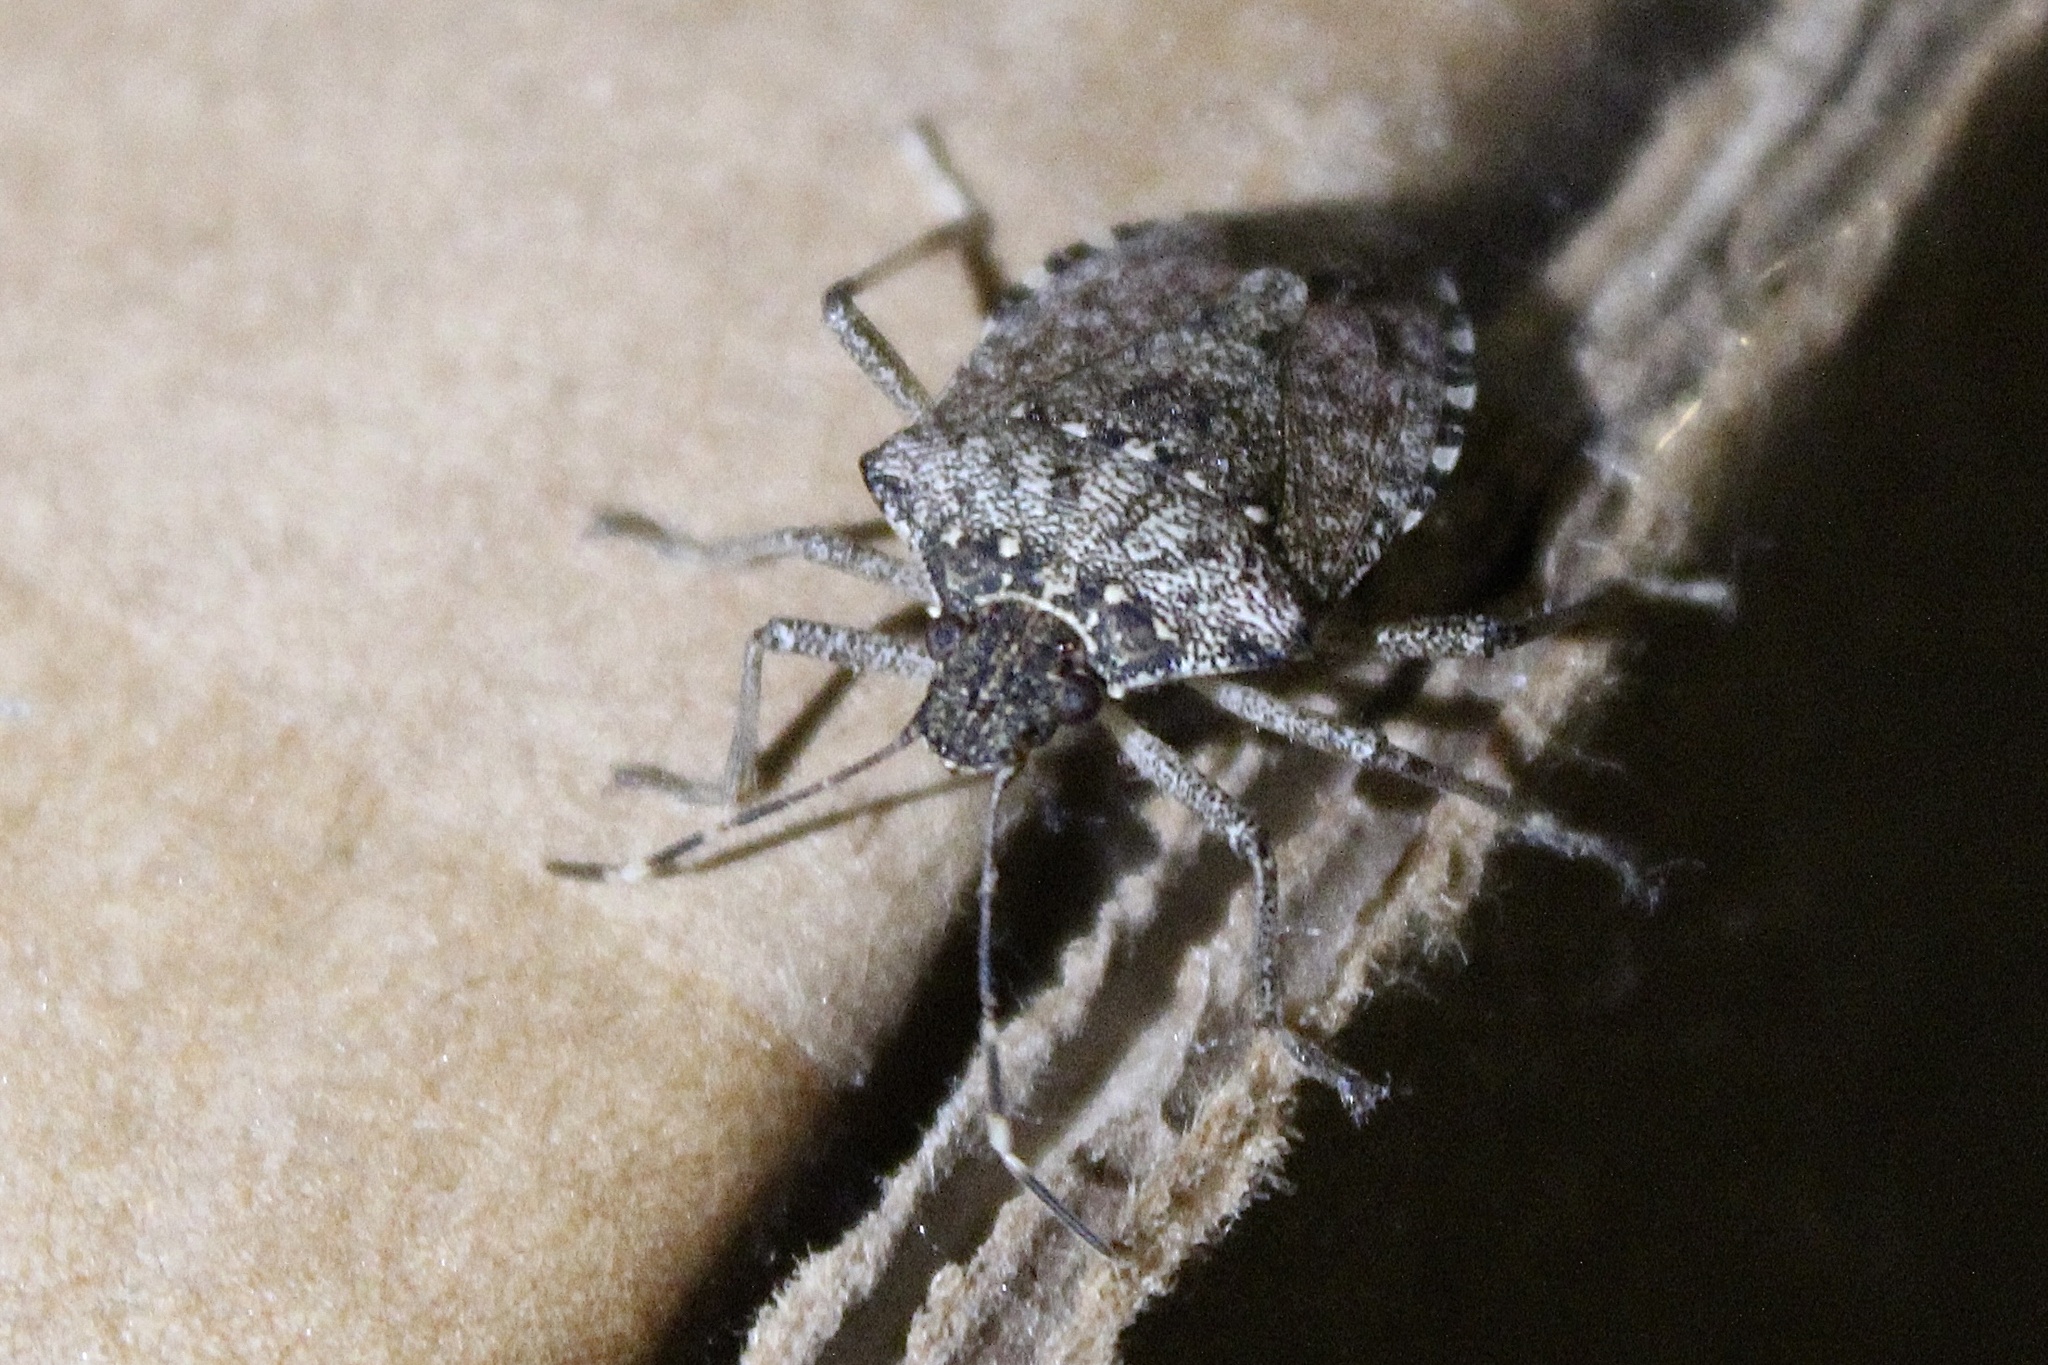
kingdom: Animalia
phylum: Arthropoda
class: Insecta
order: Hemiptera
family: Pentatomidae
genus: Halyomorpha
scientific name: Halyomorpha halys
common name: Brown marmorated stink bug
